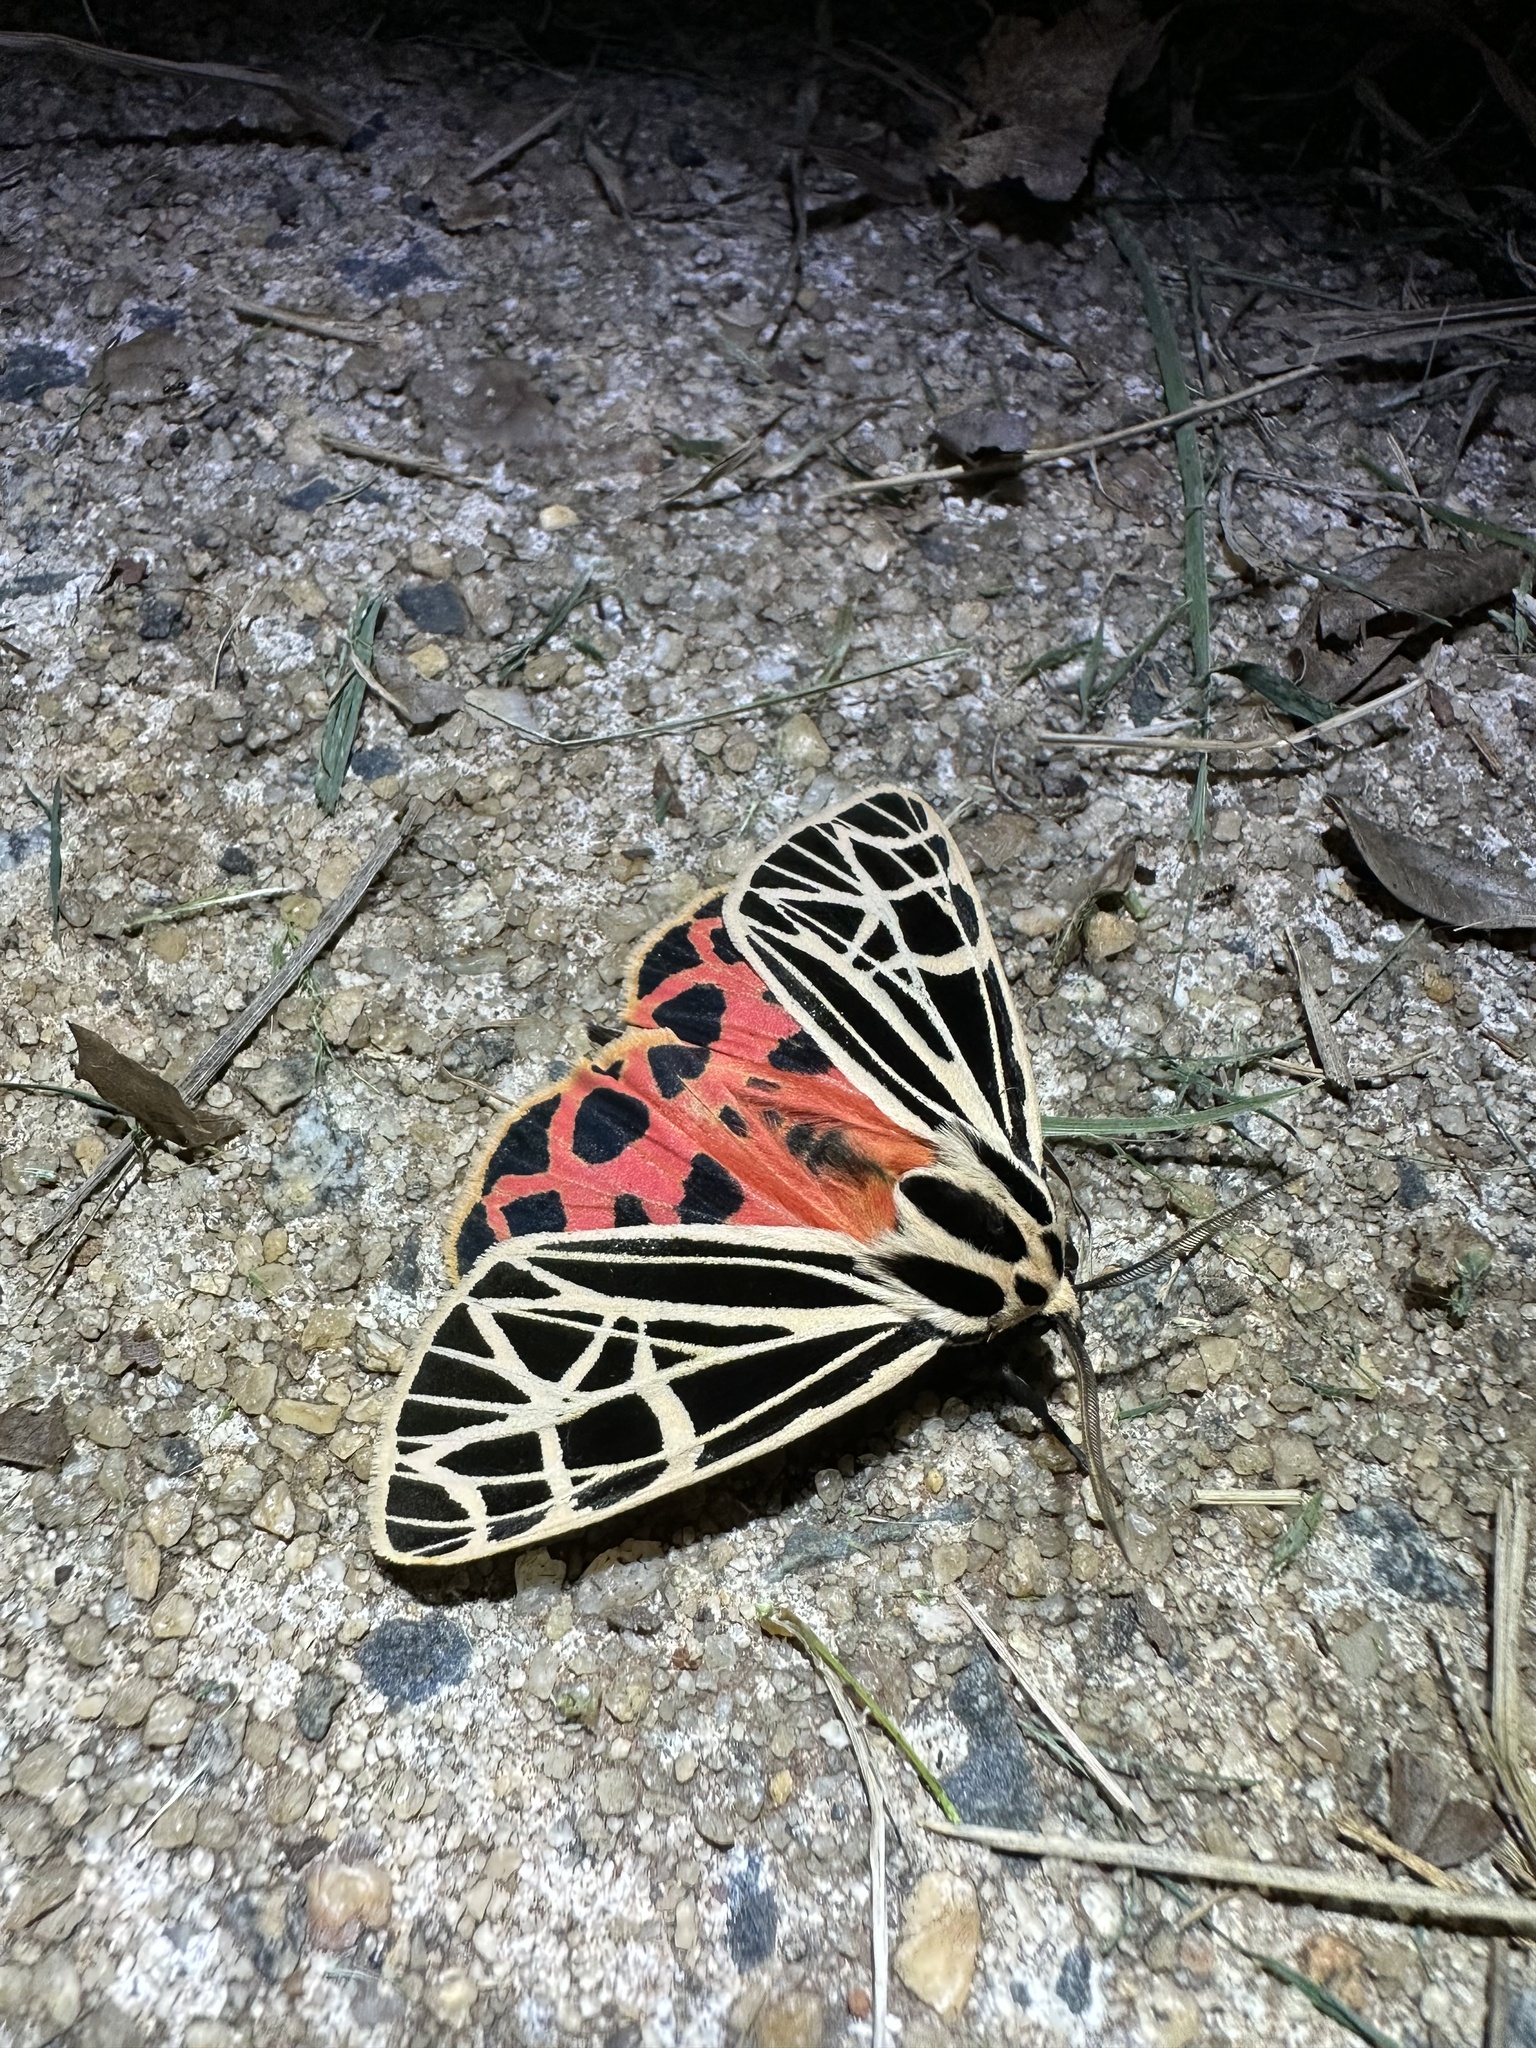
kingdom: Animalia
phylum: Arthropoda
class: Insecta
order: Lepidoptera
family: Erebidae
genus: Grammia
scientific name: Grammia virgo
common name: Virgin tiger moth
